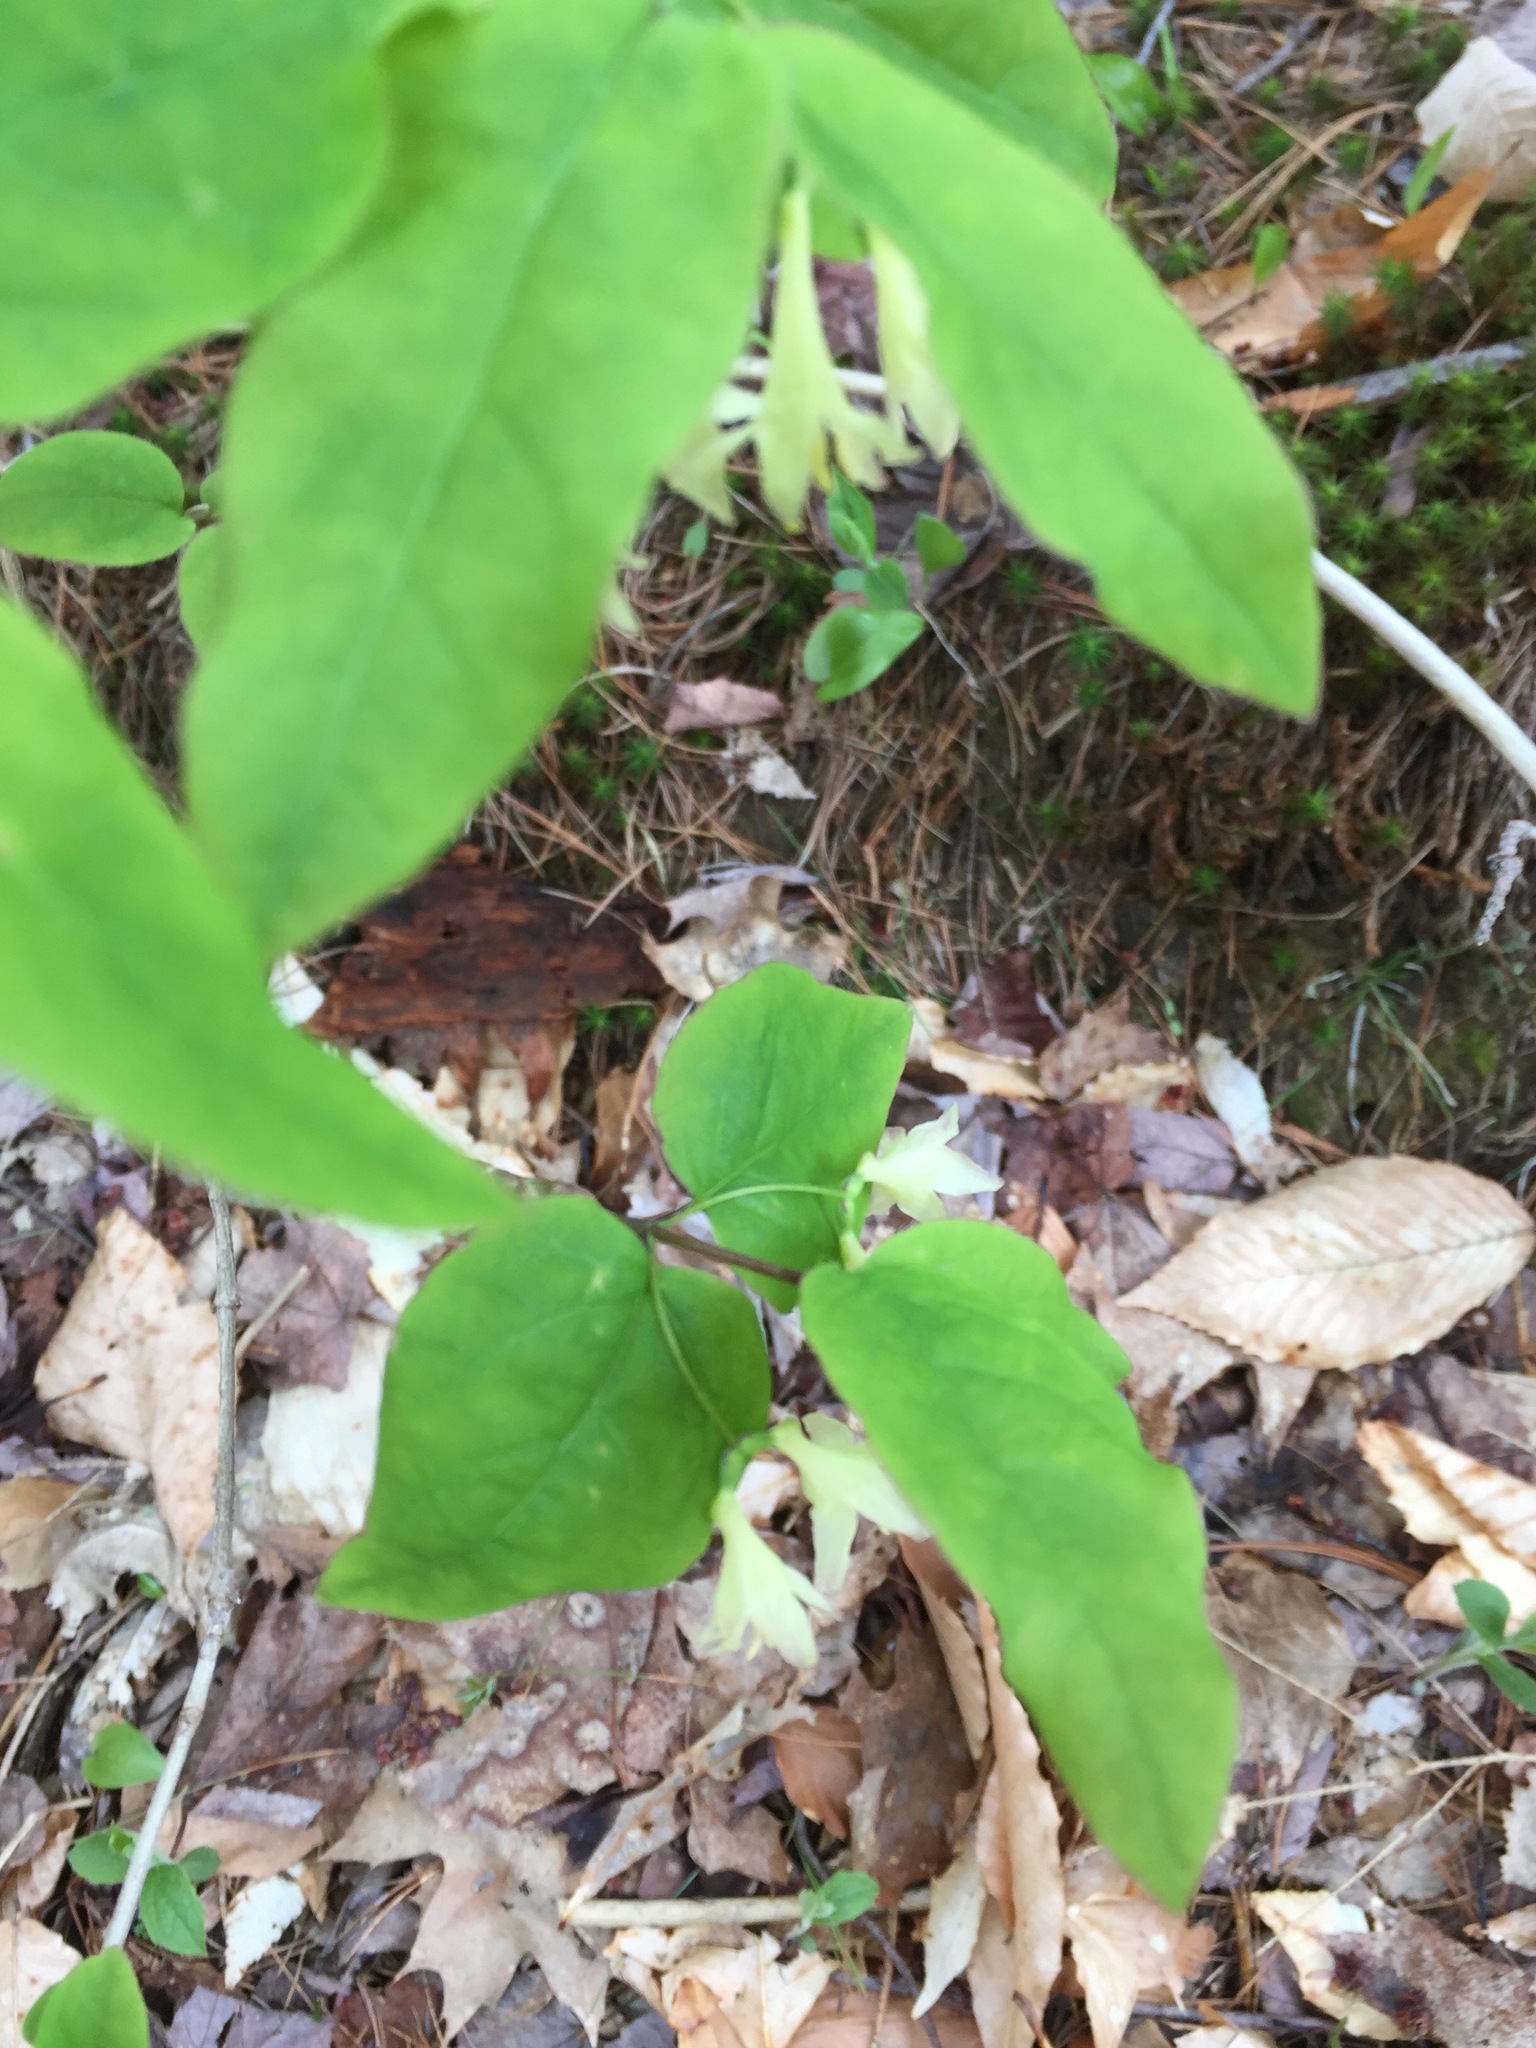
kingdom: Plantae
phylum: Tracheophyta
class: Magnoliopsida
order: Dipsacales
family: Caprifoliaceae
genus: Lonicera
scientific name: Lonicera canadensis
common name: American fly-honeysuckle
